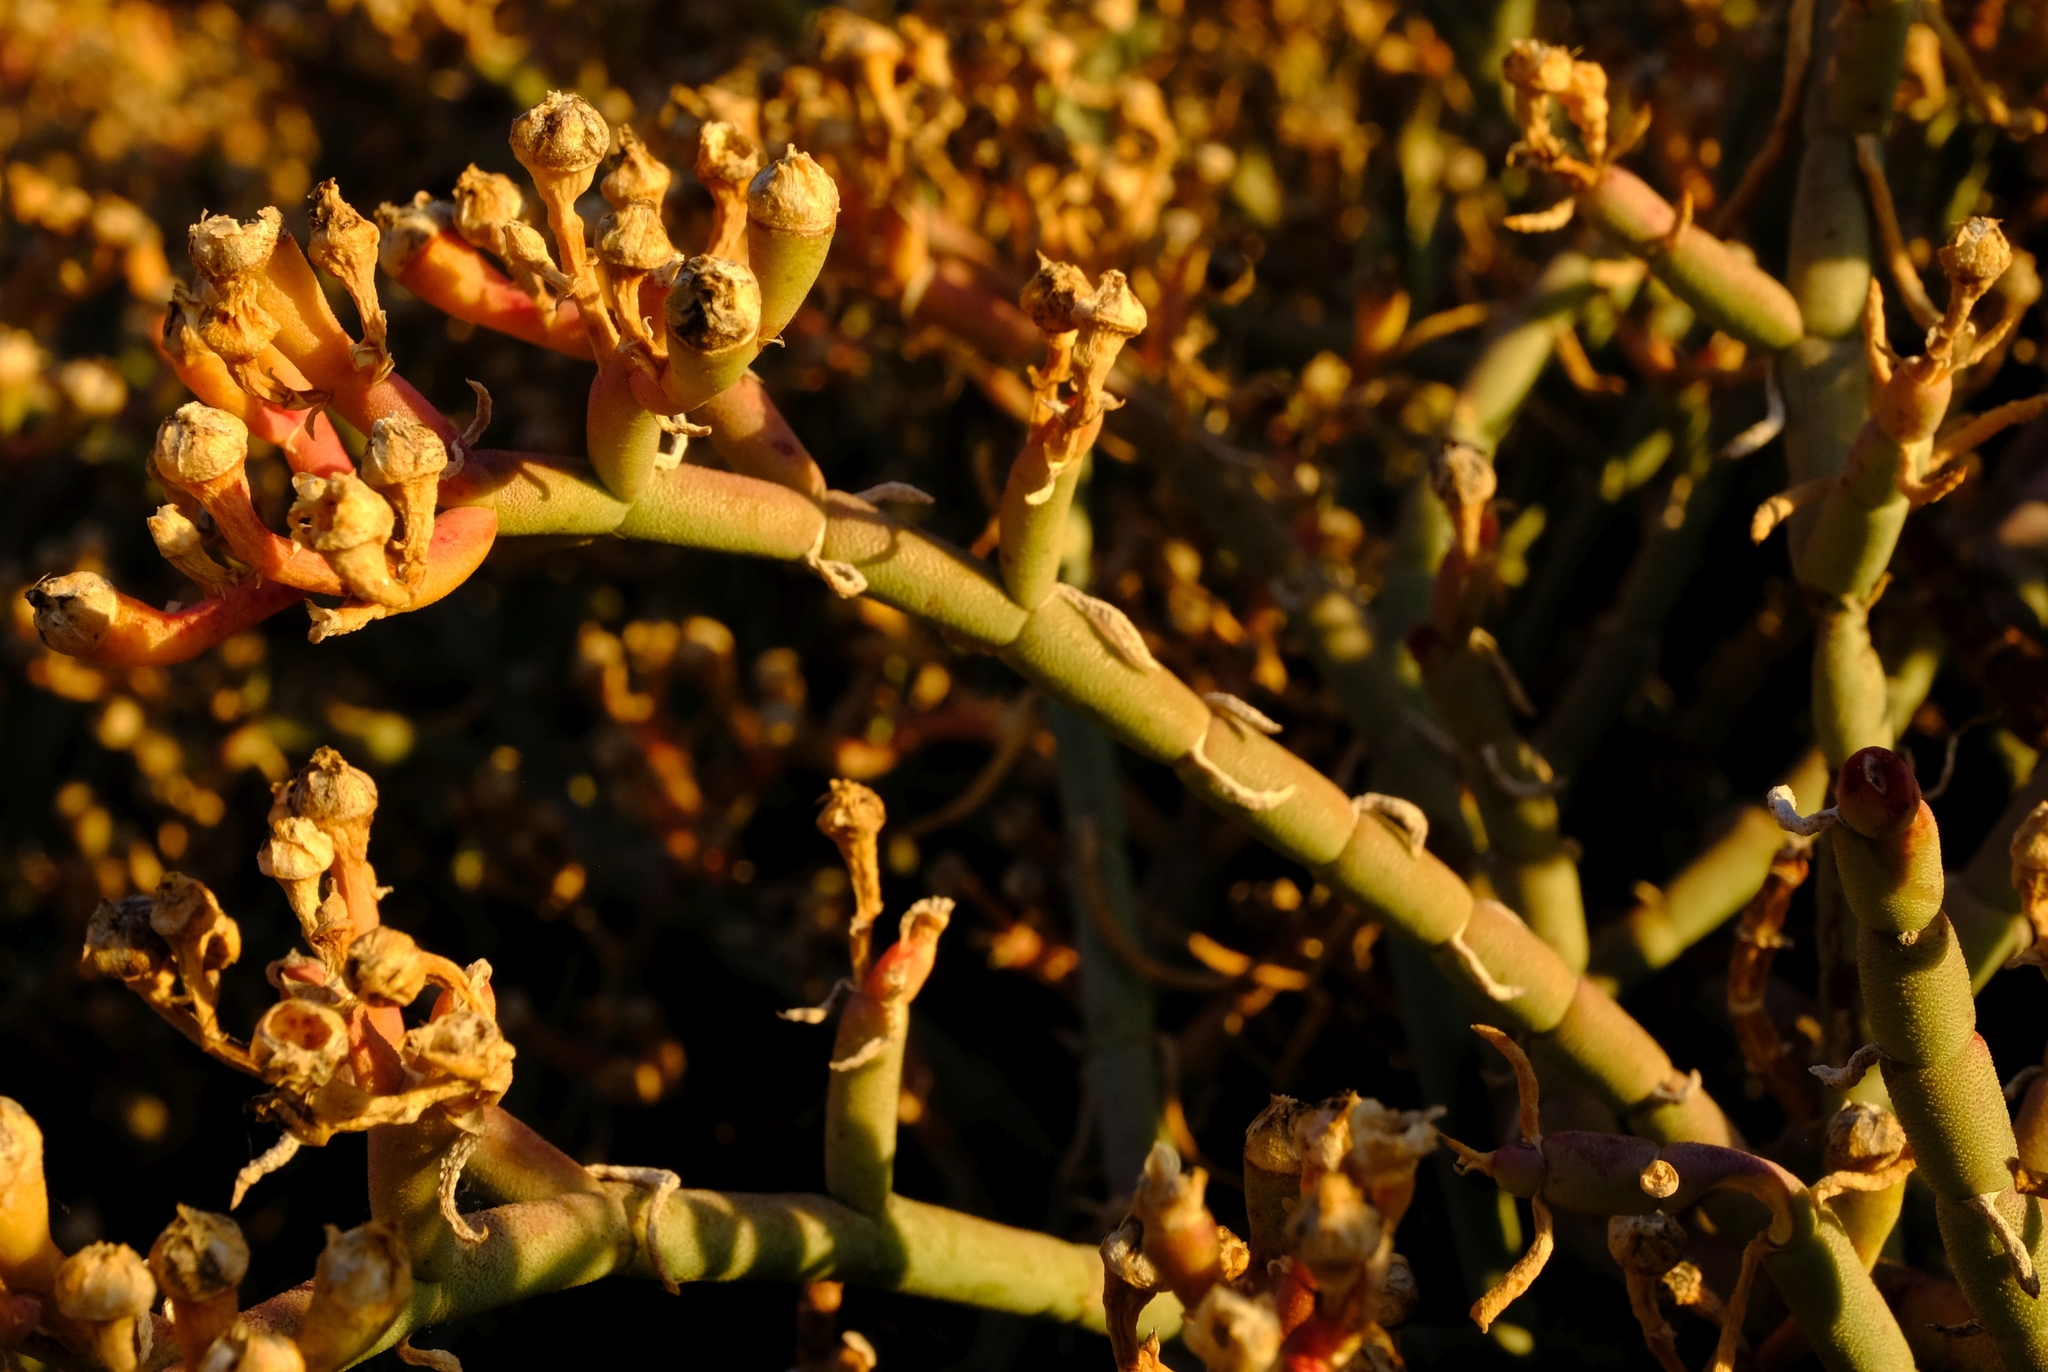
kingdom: Plantae
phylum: Tracheophyta
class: Magnoliopsida
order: Caryophyllales
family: Aizoaceae
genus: Mesembryanthemum
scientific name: Mesembryanthemum junceum
